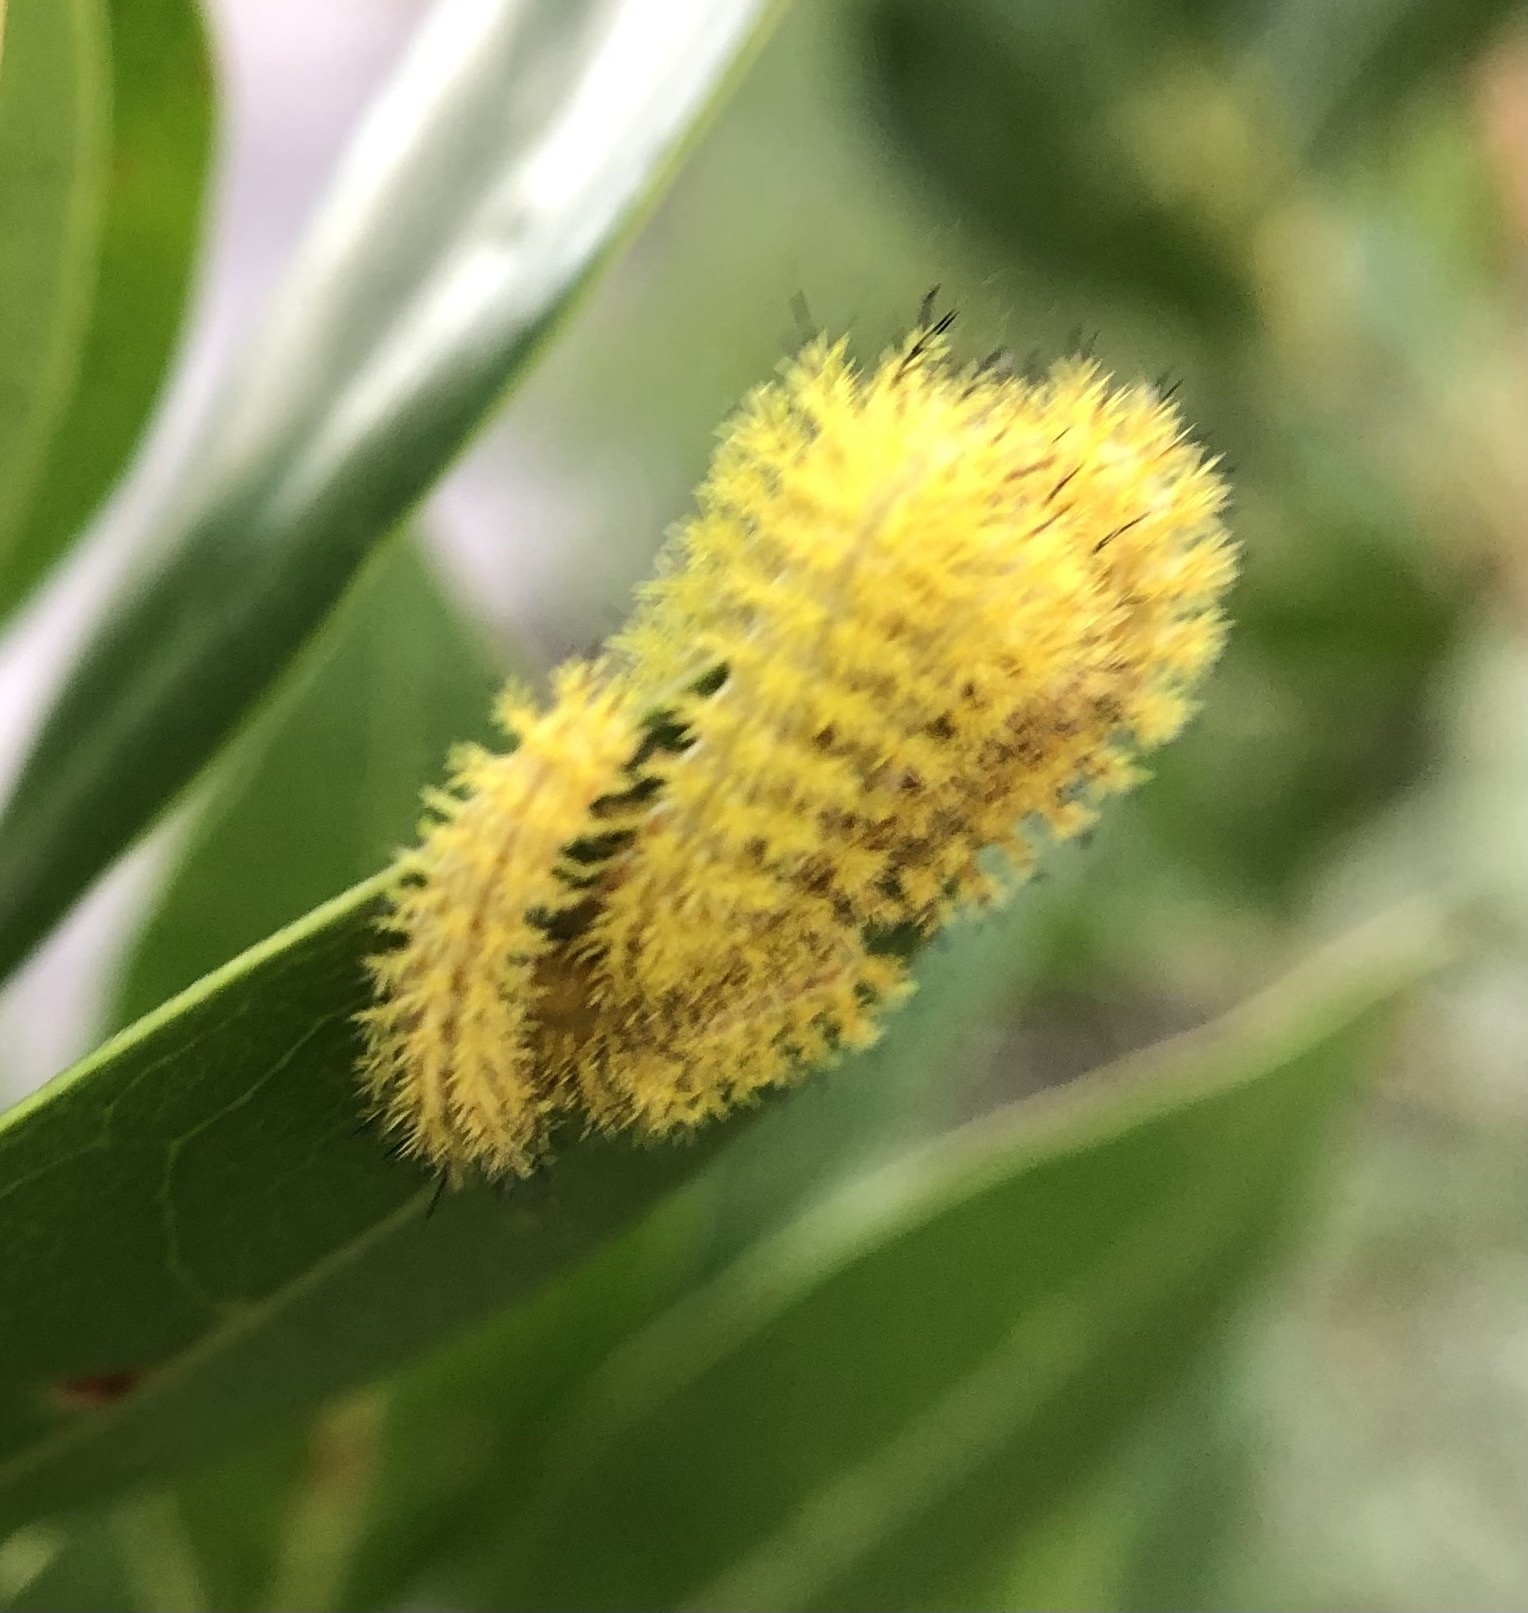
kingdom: Animalia
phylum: Arthropoda
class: Insecta
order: Lepidoptera
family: Saturniidae
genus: Automeris
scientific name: Automeris io
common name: Io moth
